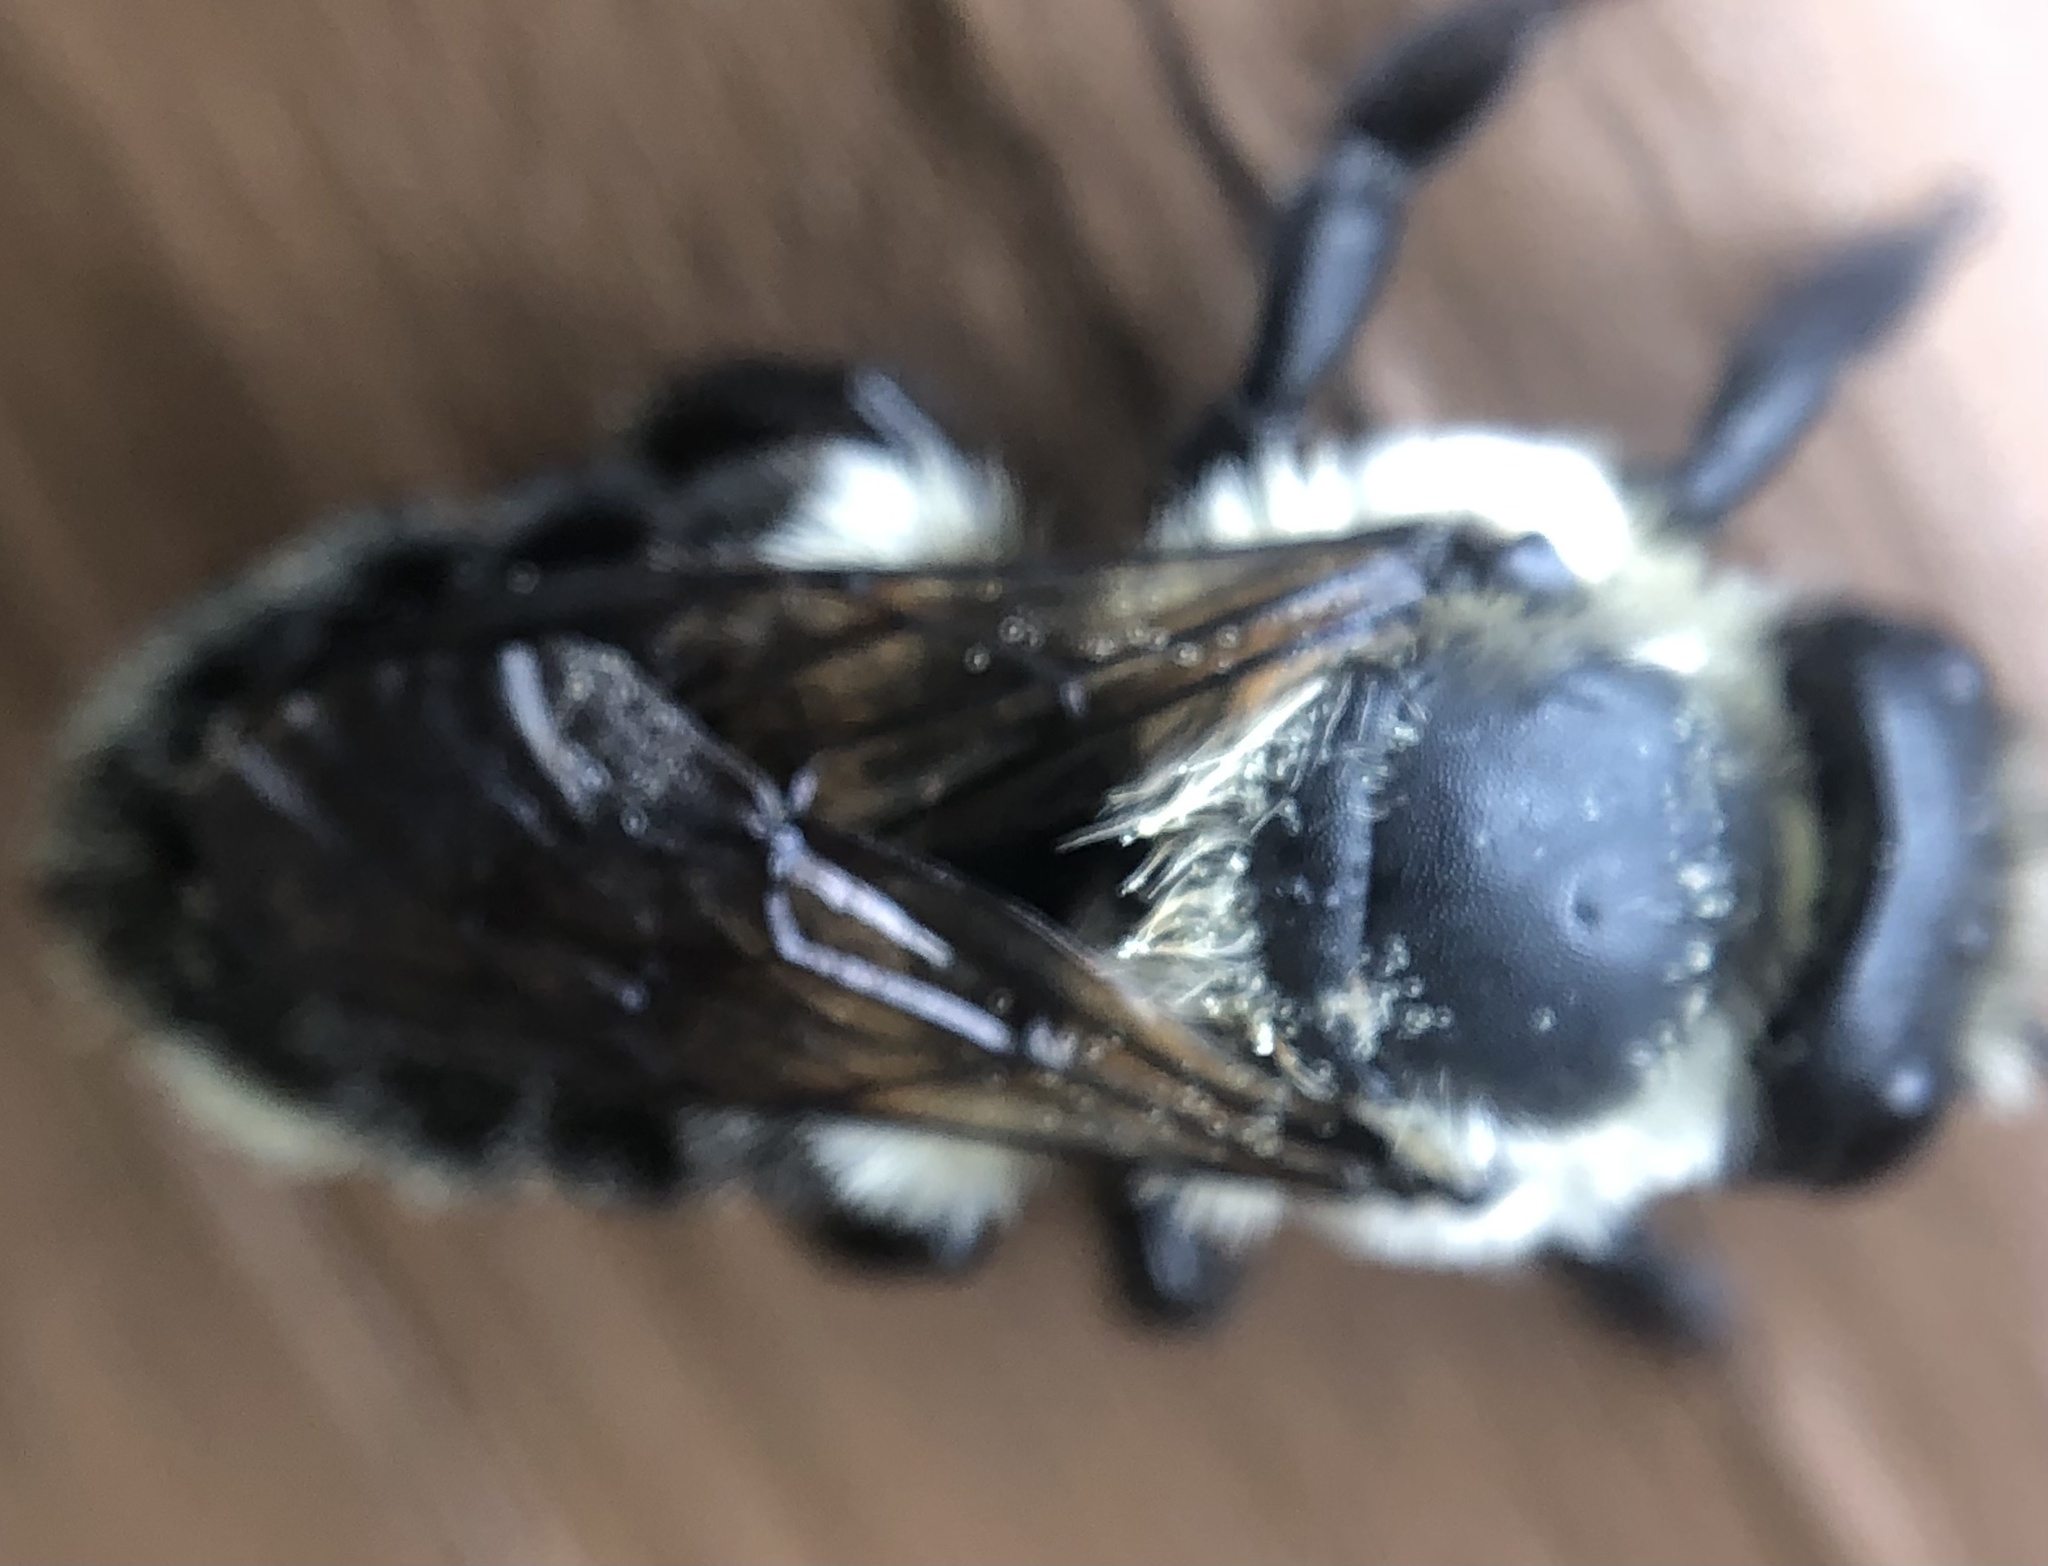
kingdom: Animalia
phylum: Arthropoda
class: Insecta
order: Hymenoptera
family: Megachilidae
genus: Megachile
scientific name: Megachile mucida
